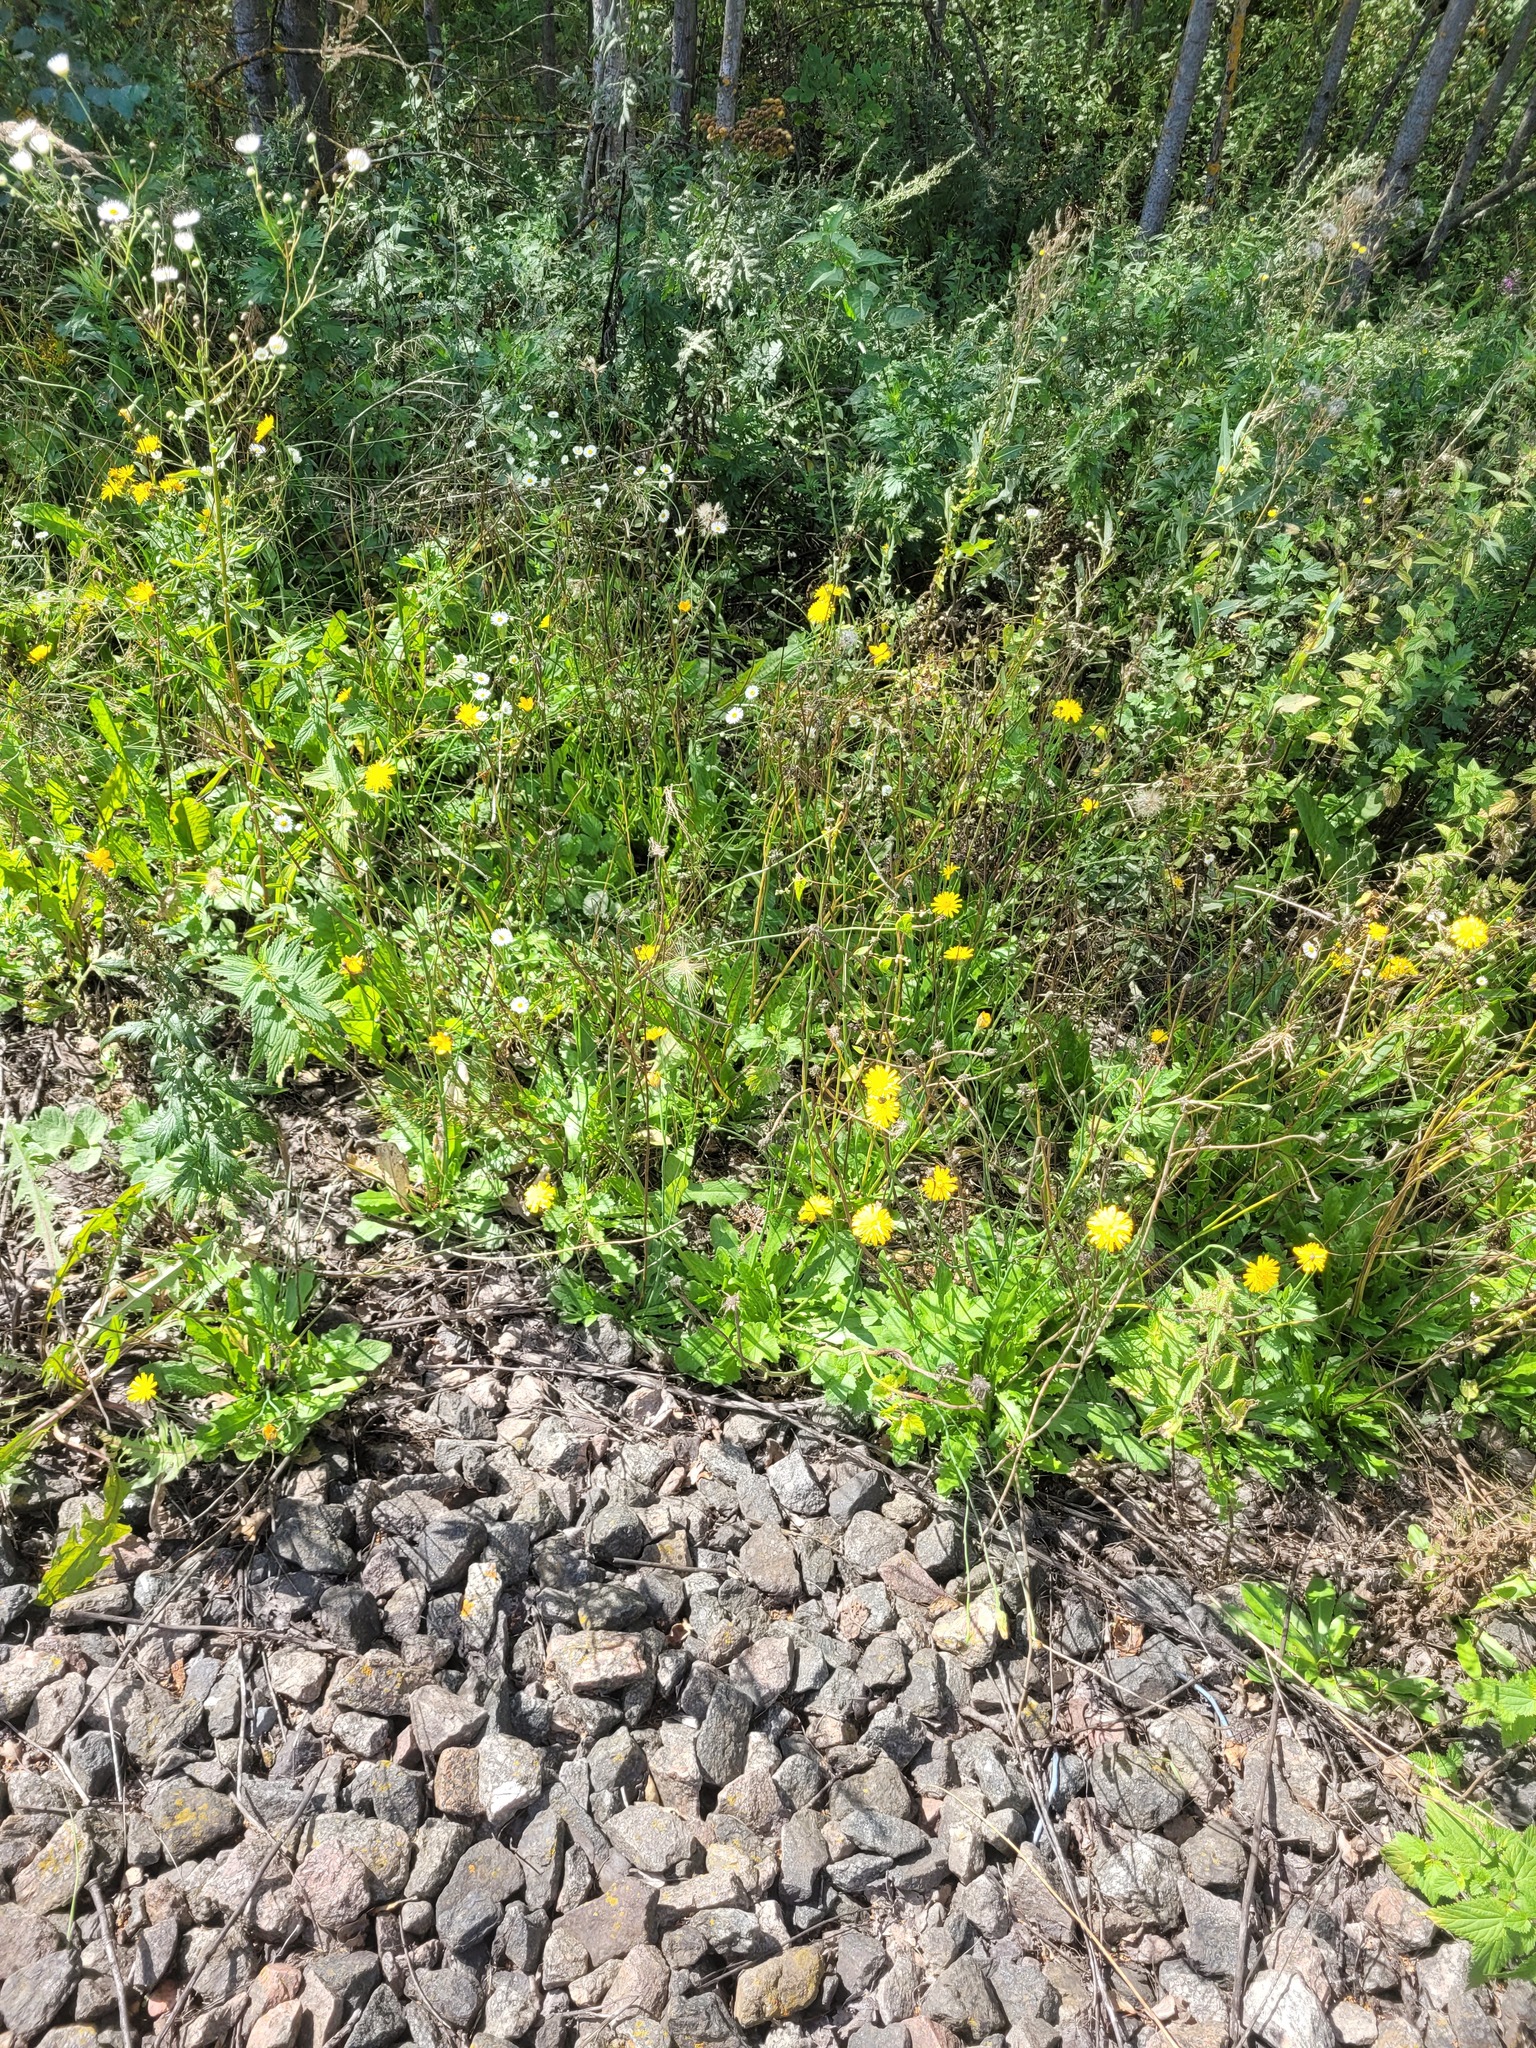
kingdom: Plantae
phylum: Tracheophyta
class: Magnoliopsida
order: Asterales
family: Asteraceae
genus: Hypochaeris
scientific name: Hypochaeris radicata
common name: Flatweed
